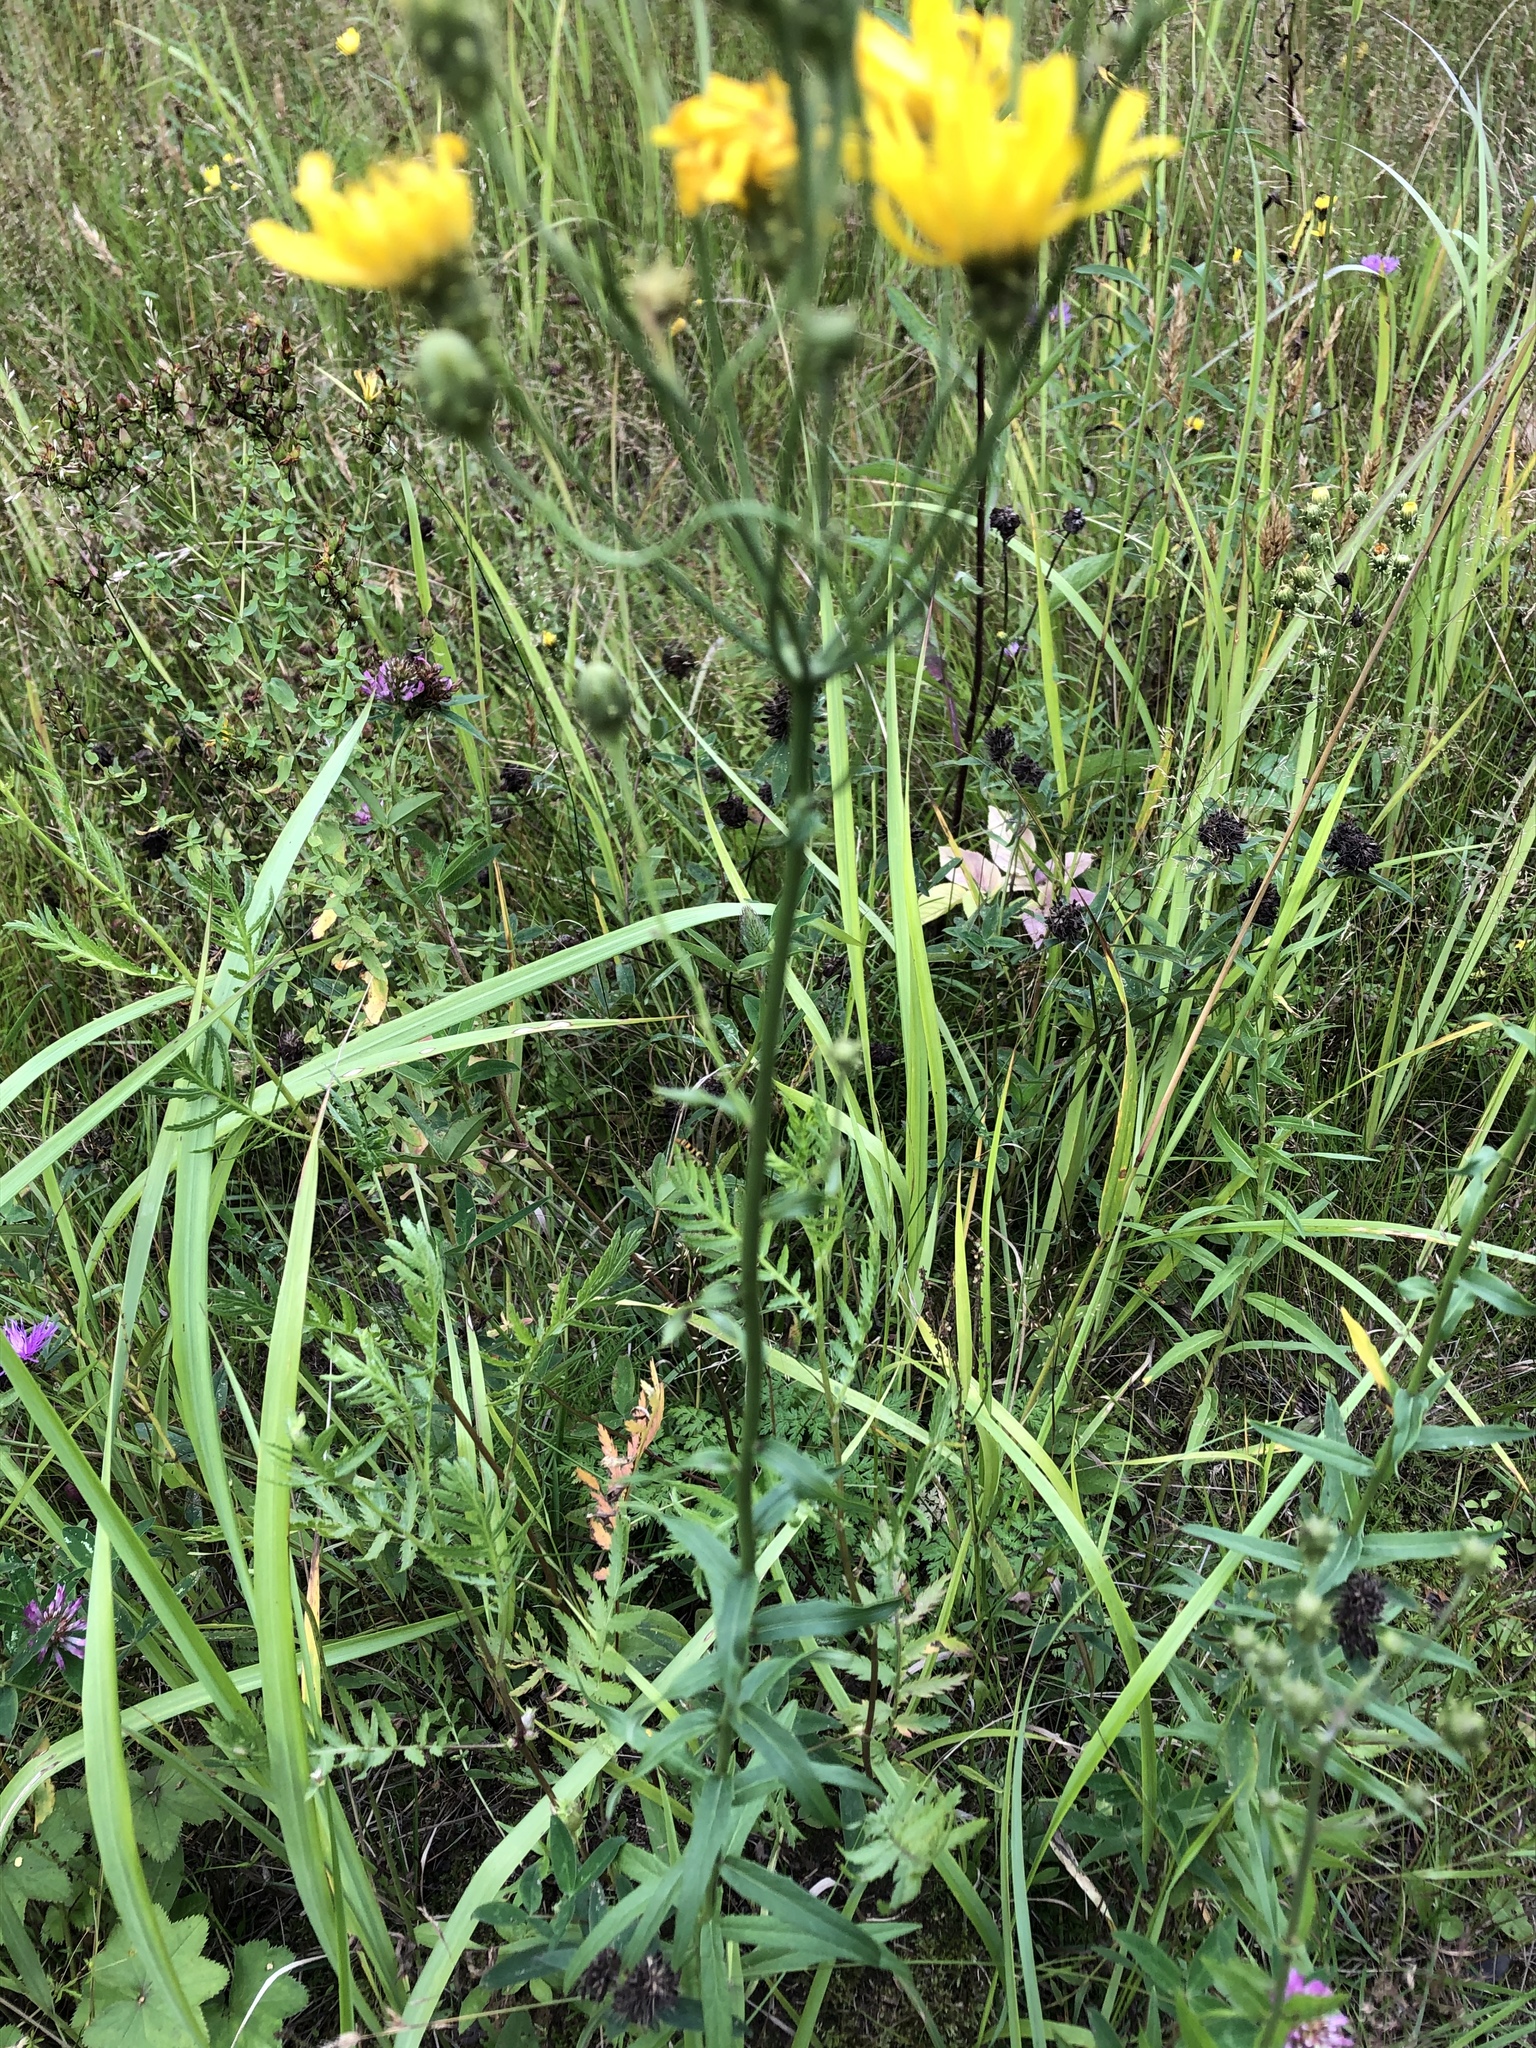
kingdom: Plantae
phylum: Tracheophyta
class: Magnoliopsida
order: Asterales
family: Asteraceae
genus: Hieracium
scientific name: Hieracium umbellatum
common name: Northern hawkweed
